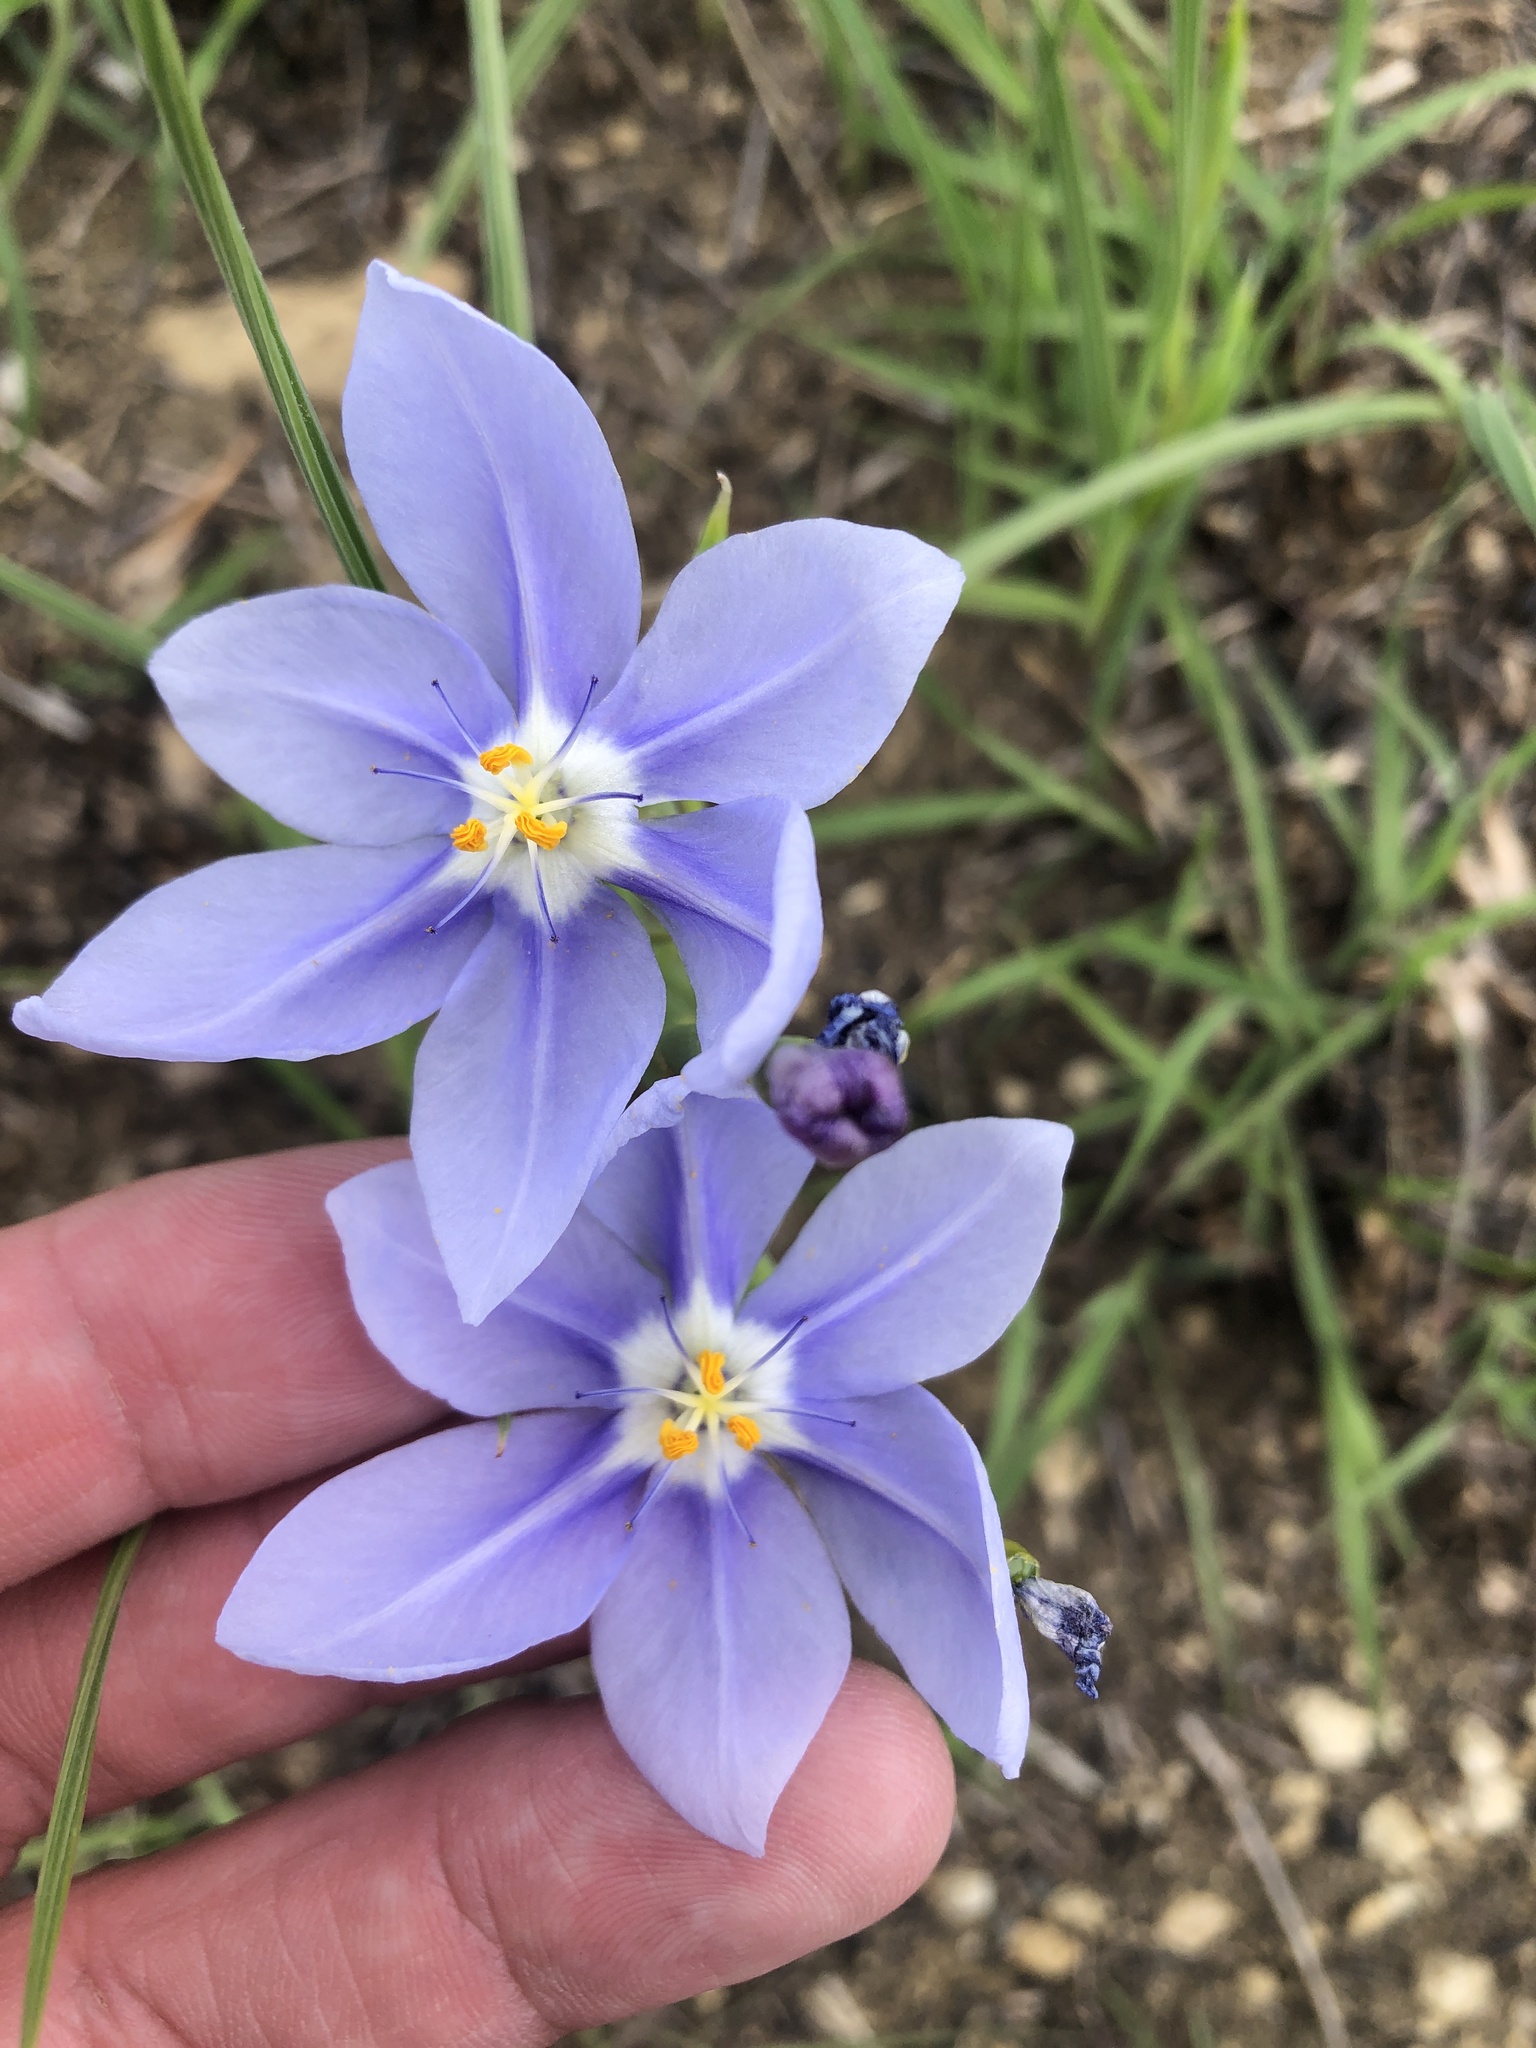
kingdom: Plantae
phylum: Tracheophyta
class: Liliopsida
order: Asparagales
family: Iridaceae
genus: Nemastylis
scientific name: Nemastylis geminiflora
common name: Prairie celestial
